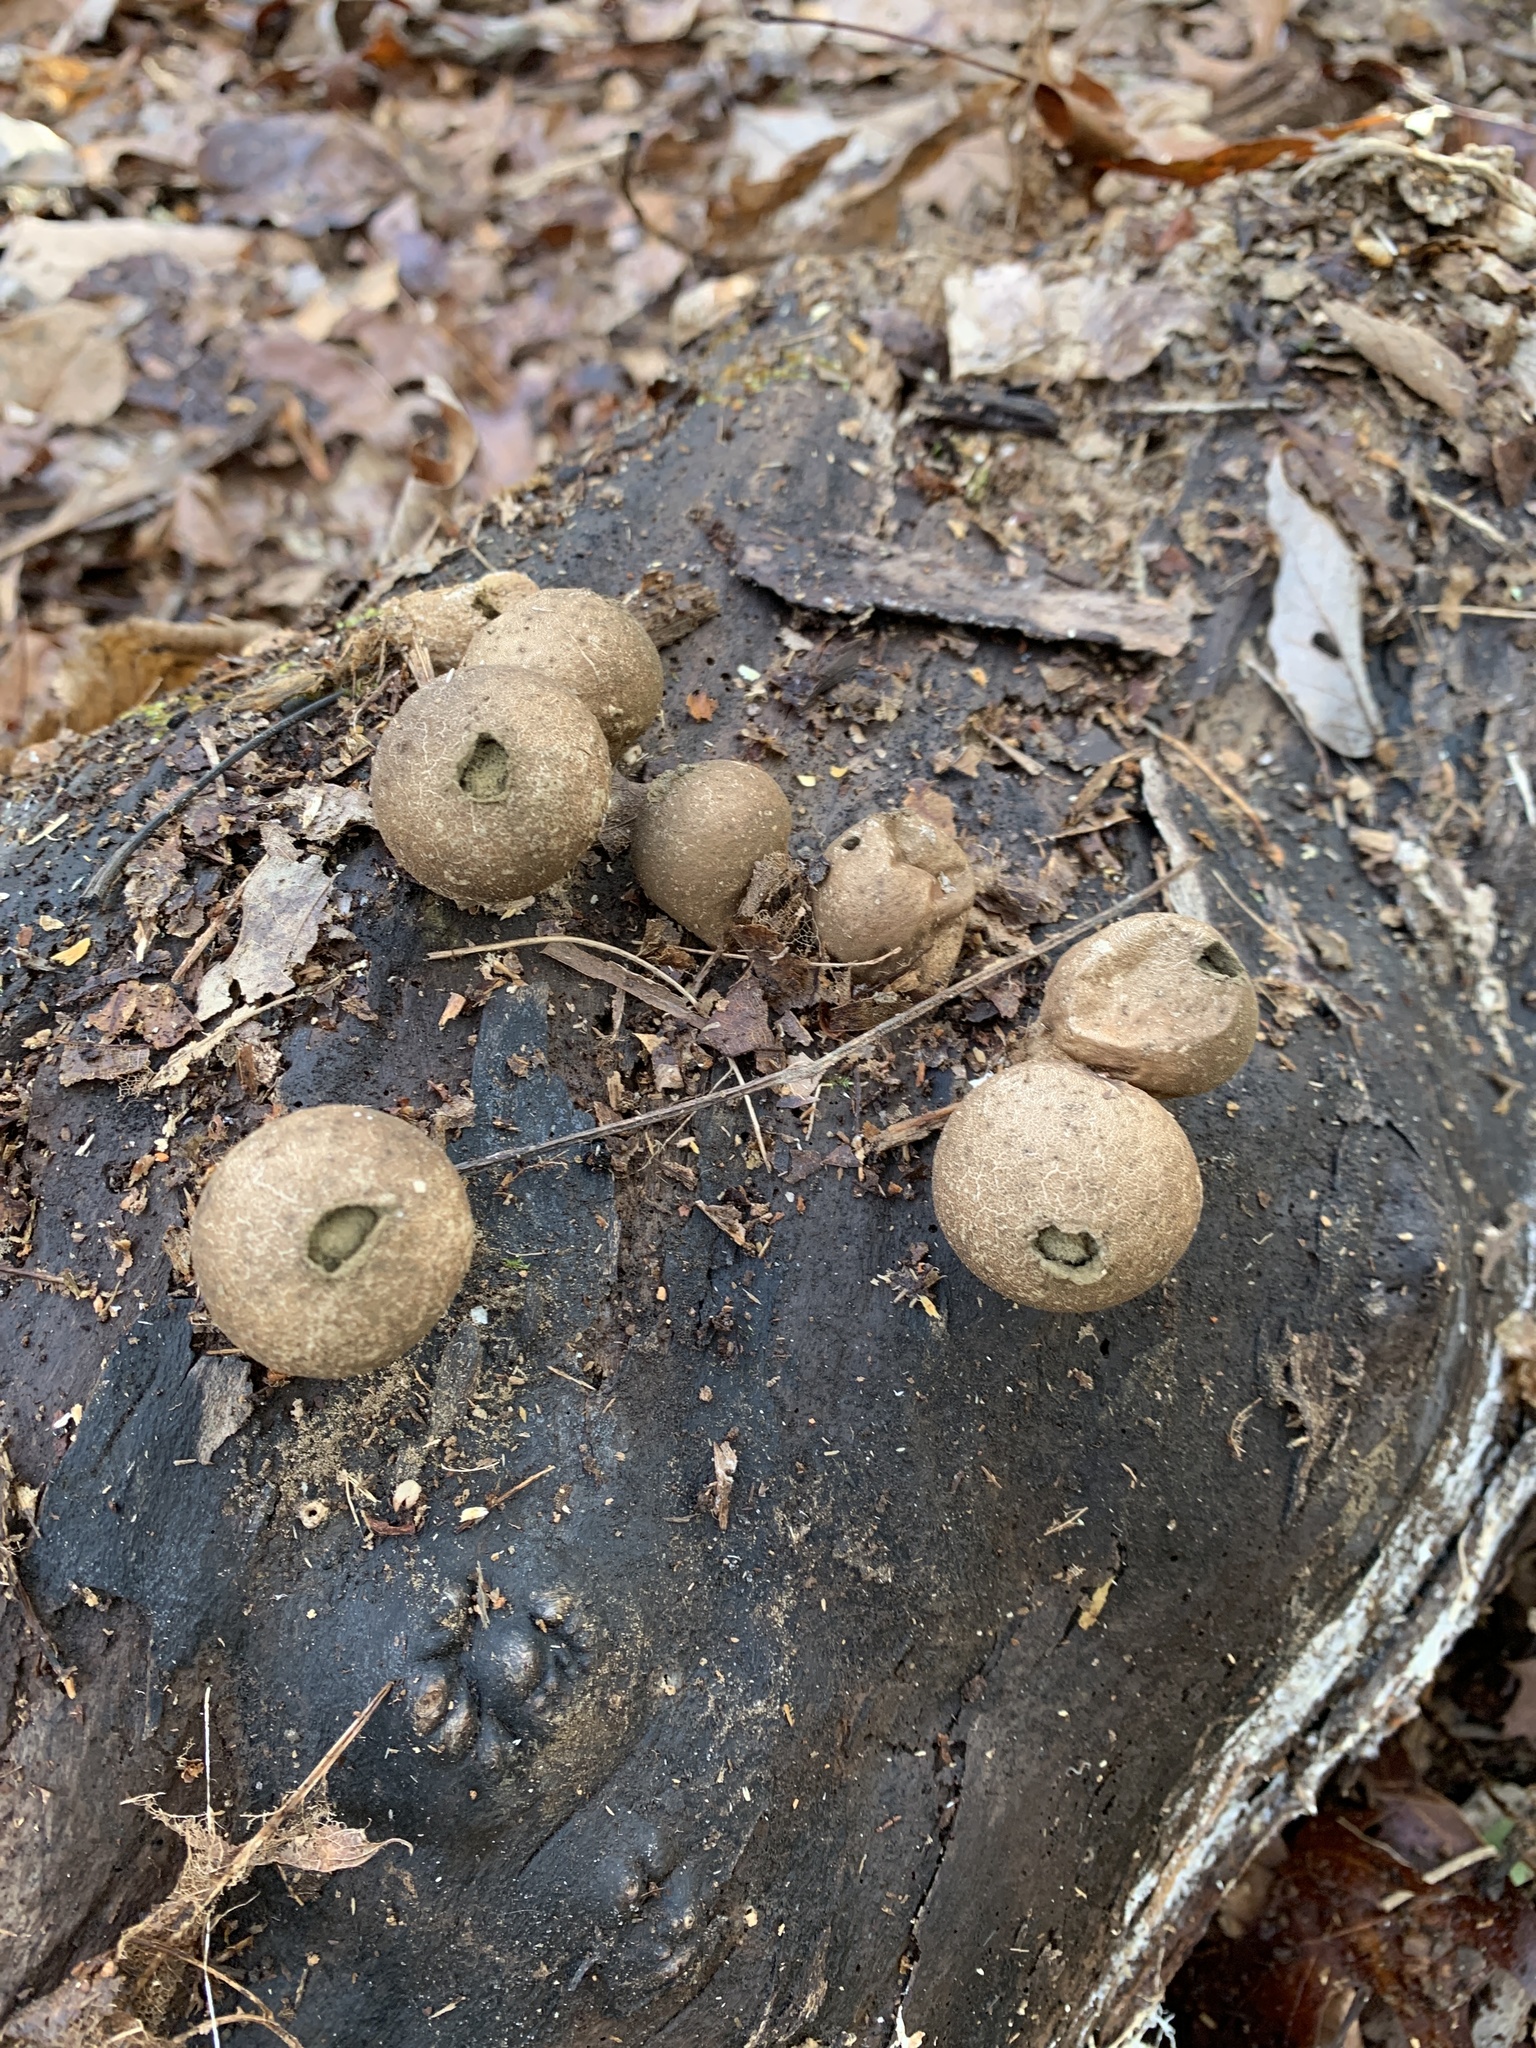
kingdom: Fungi
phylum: Basidiomycota
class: Agaricomycetes
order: Agaricales
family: Lycoperdaceae
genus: Apioperdon
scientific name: Apioperdon pyriforme
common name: Pear-shaped puffball
